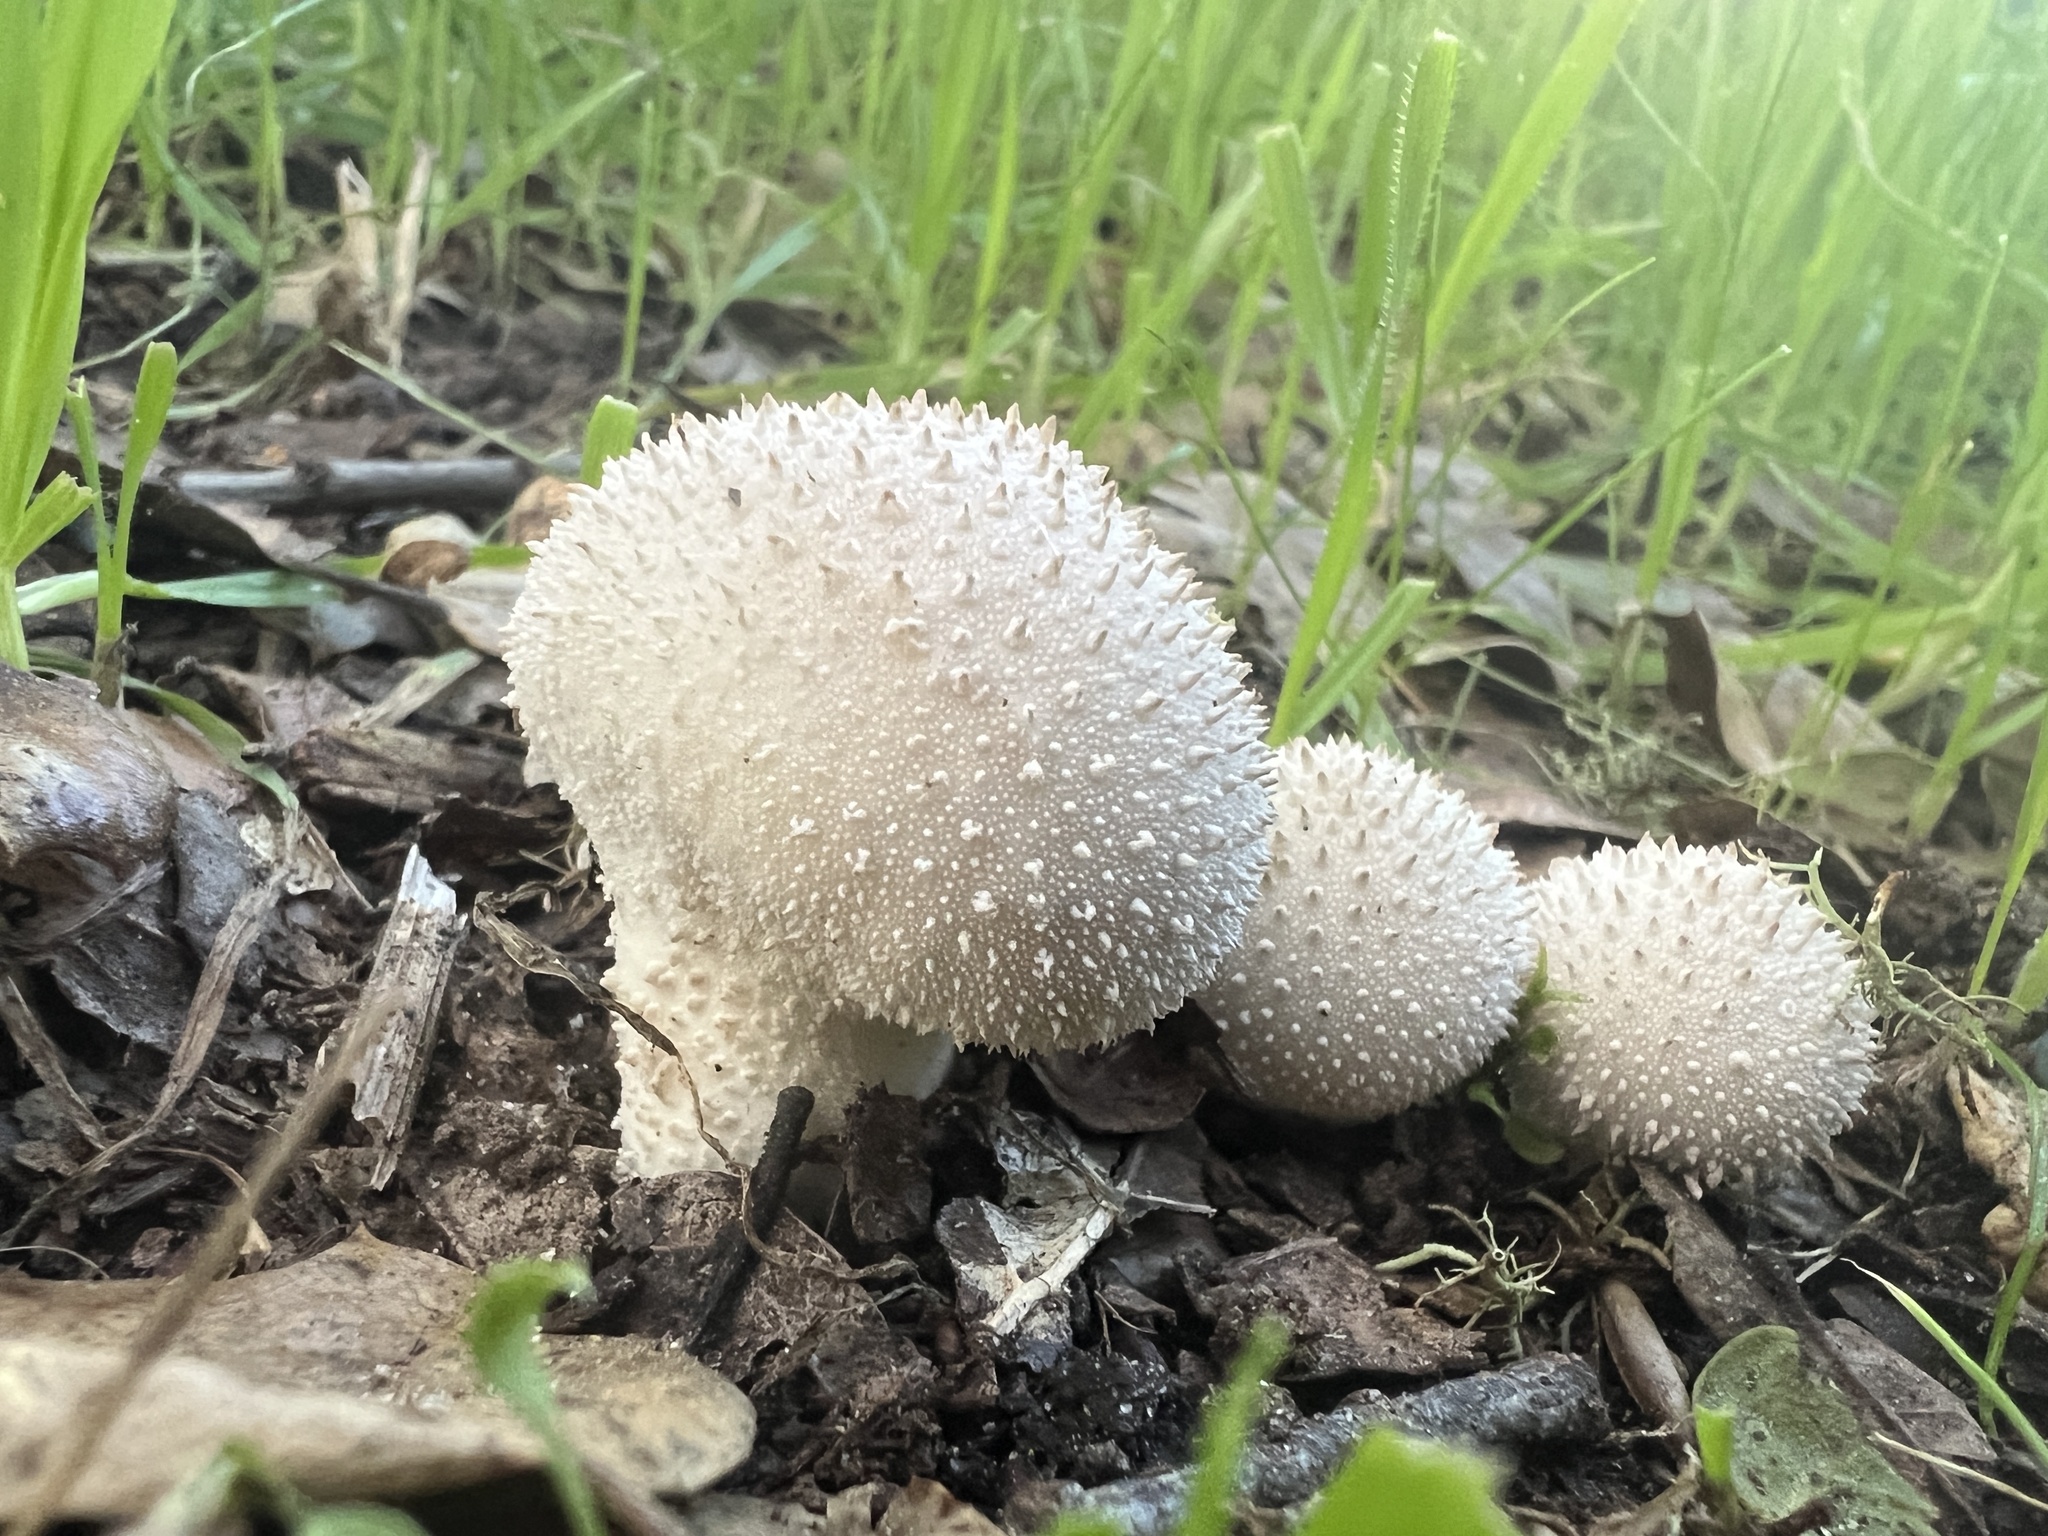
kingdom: Fungi
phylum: Basidiomycota
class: Agaricomycetes
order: Agaricales
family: Lycoperdaceae
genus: Lycoperdon
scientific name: Lycoperdon perlatum
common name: Common puffball
